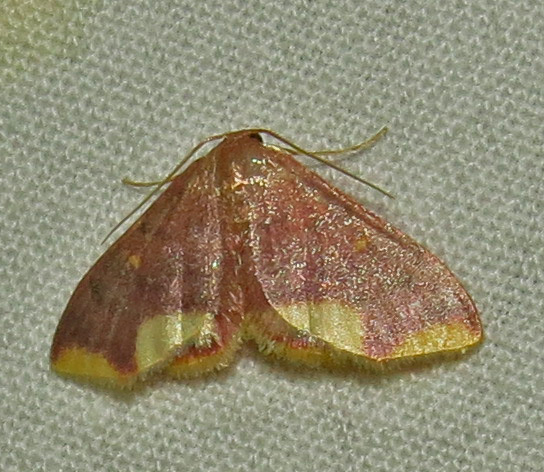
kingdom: Animalia
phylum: Arthropoda
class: Insecta
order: Lepidoptera
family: Geometridae
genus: Lophosis
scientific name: Lophosis labeculata
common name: Stained lophosis moth
